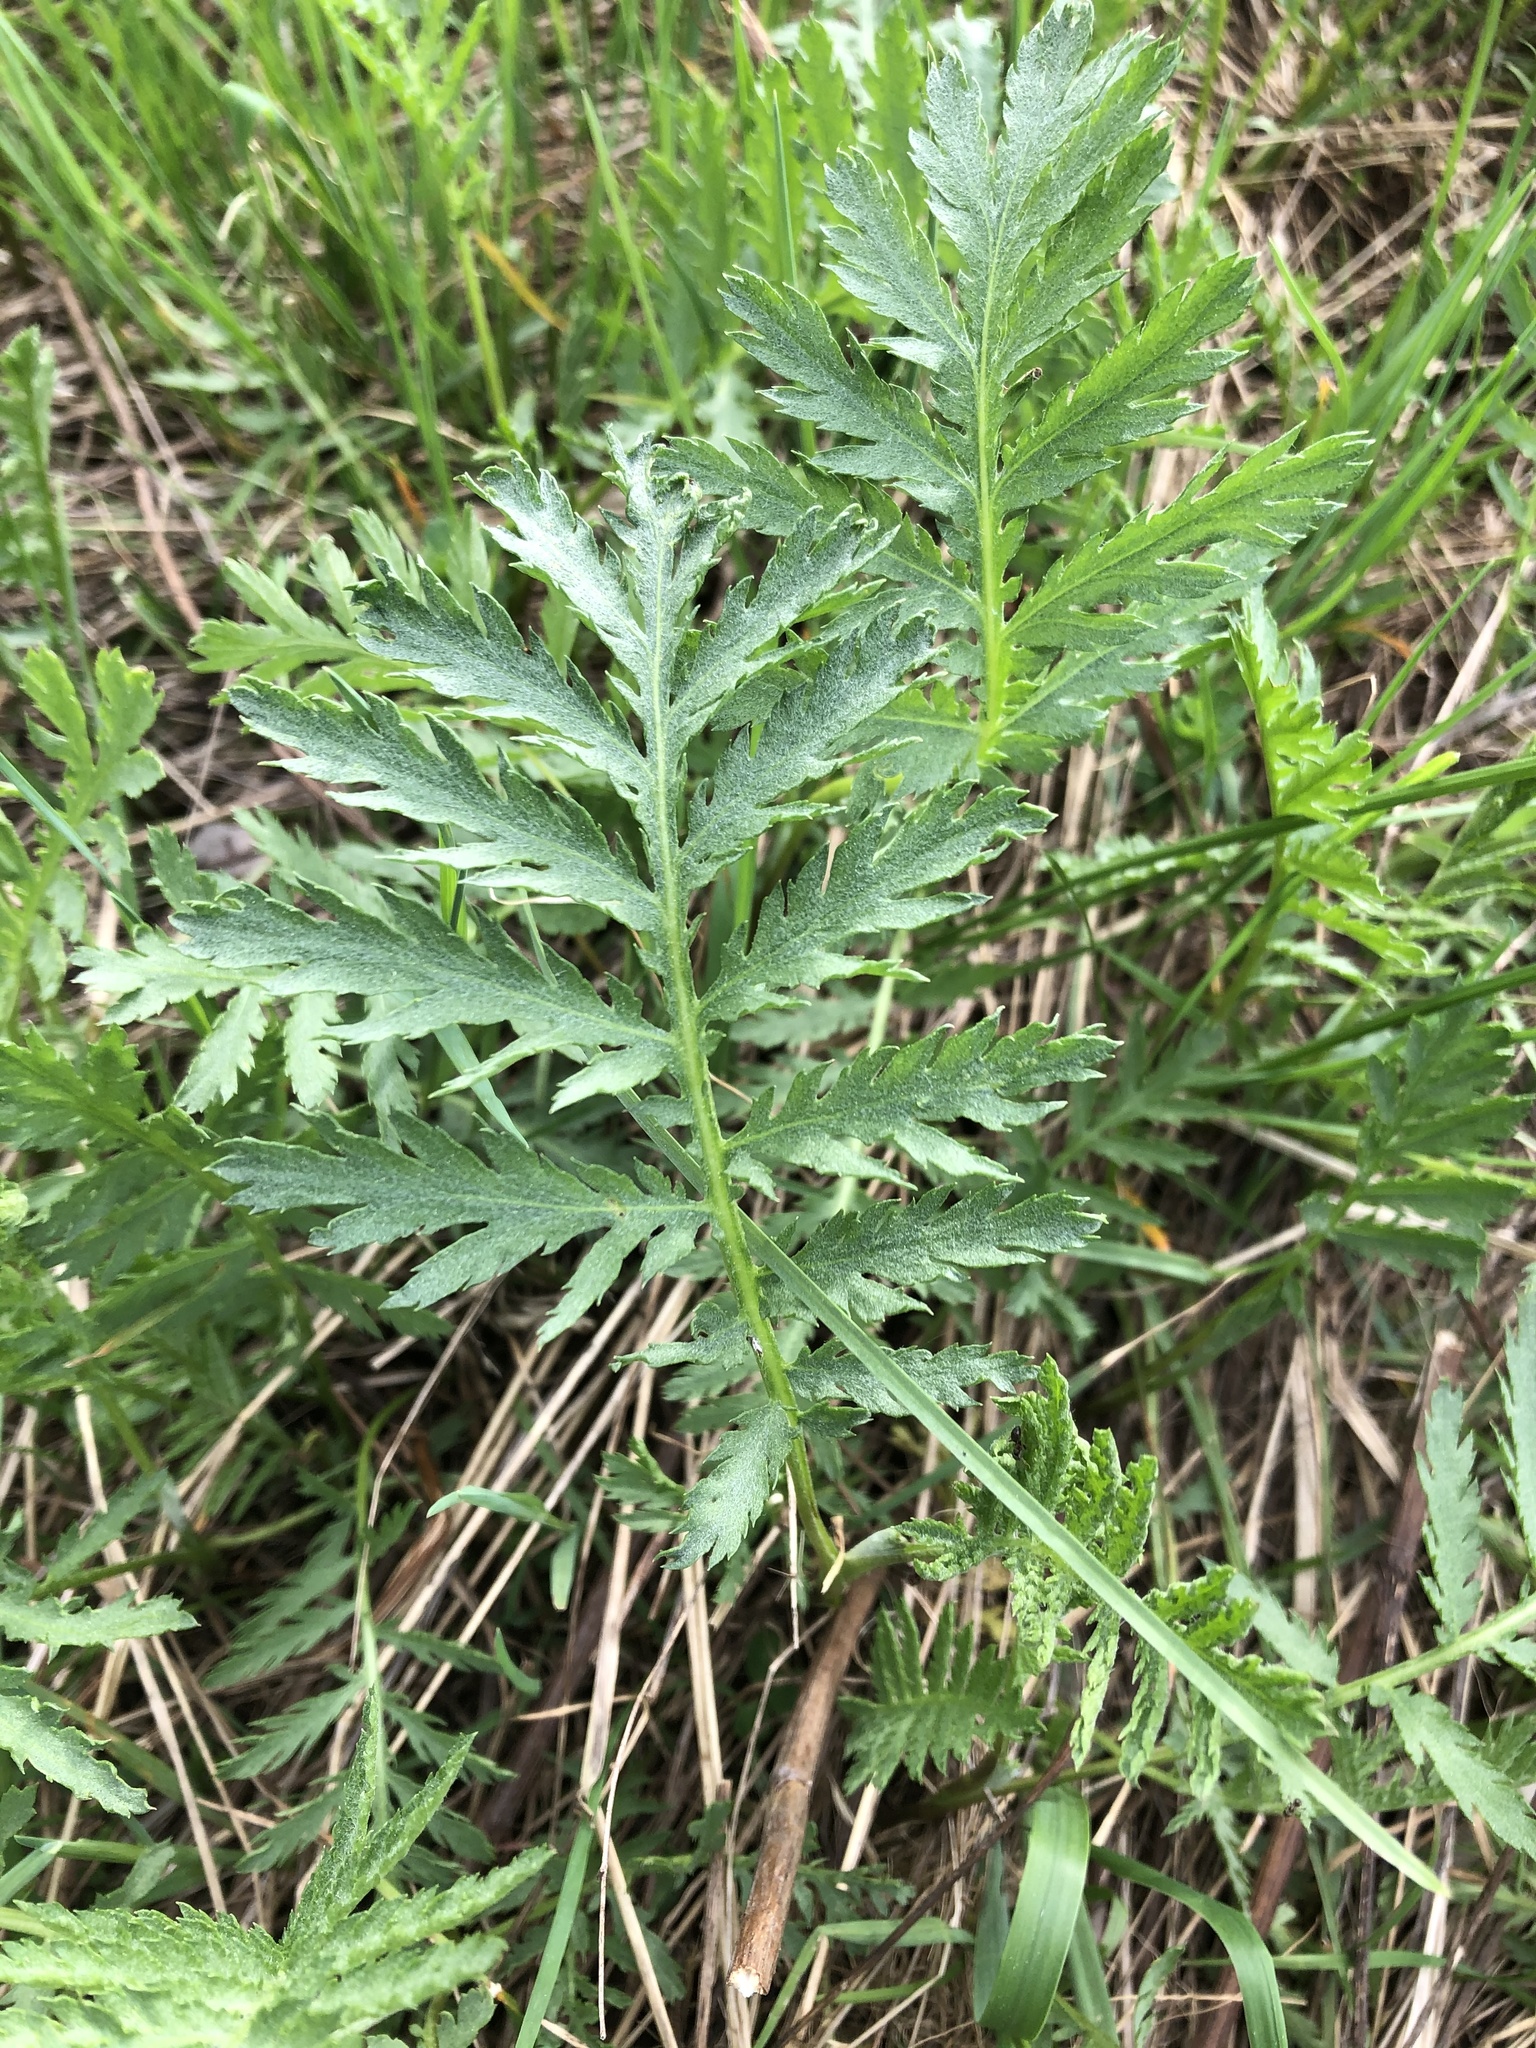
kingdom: Plantae
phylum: Tracheophyta
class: Magnoliopsida
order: Asterales
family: Asteraceae
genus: Tanacetum
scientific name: Tanacetum vulgare
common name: Common tansy
